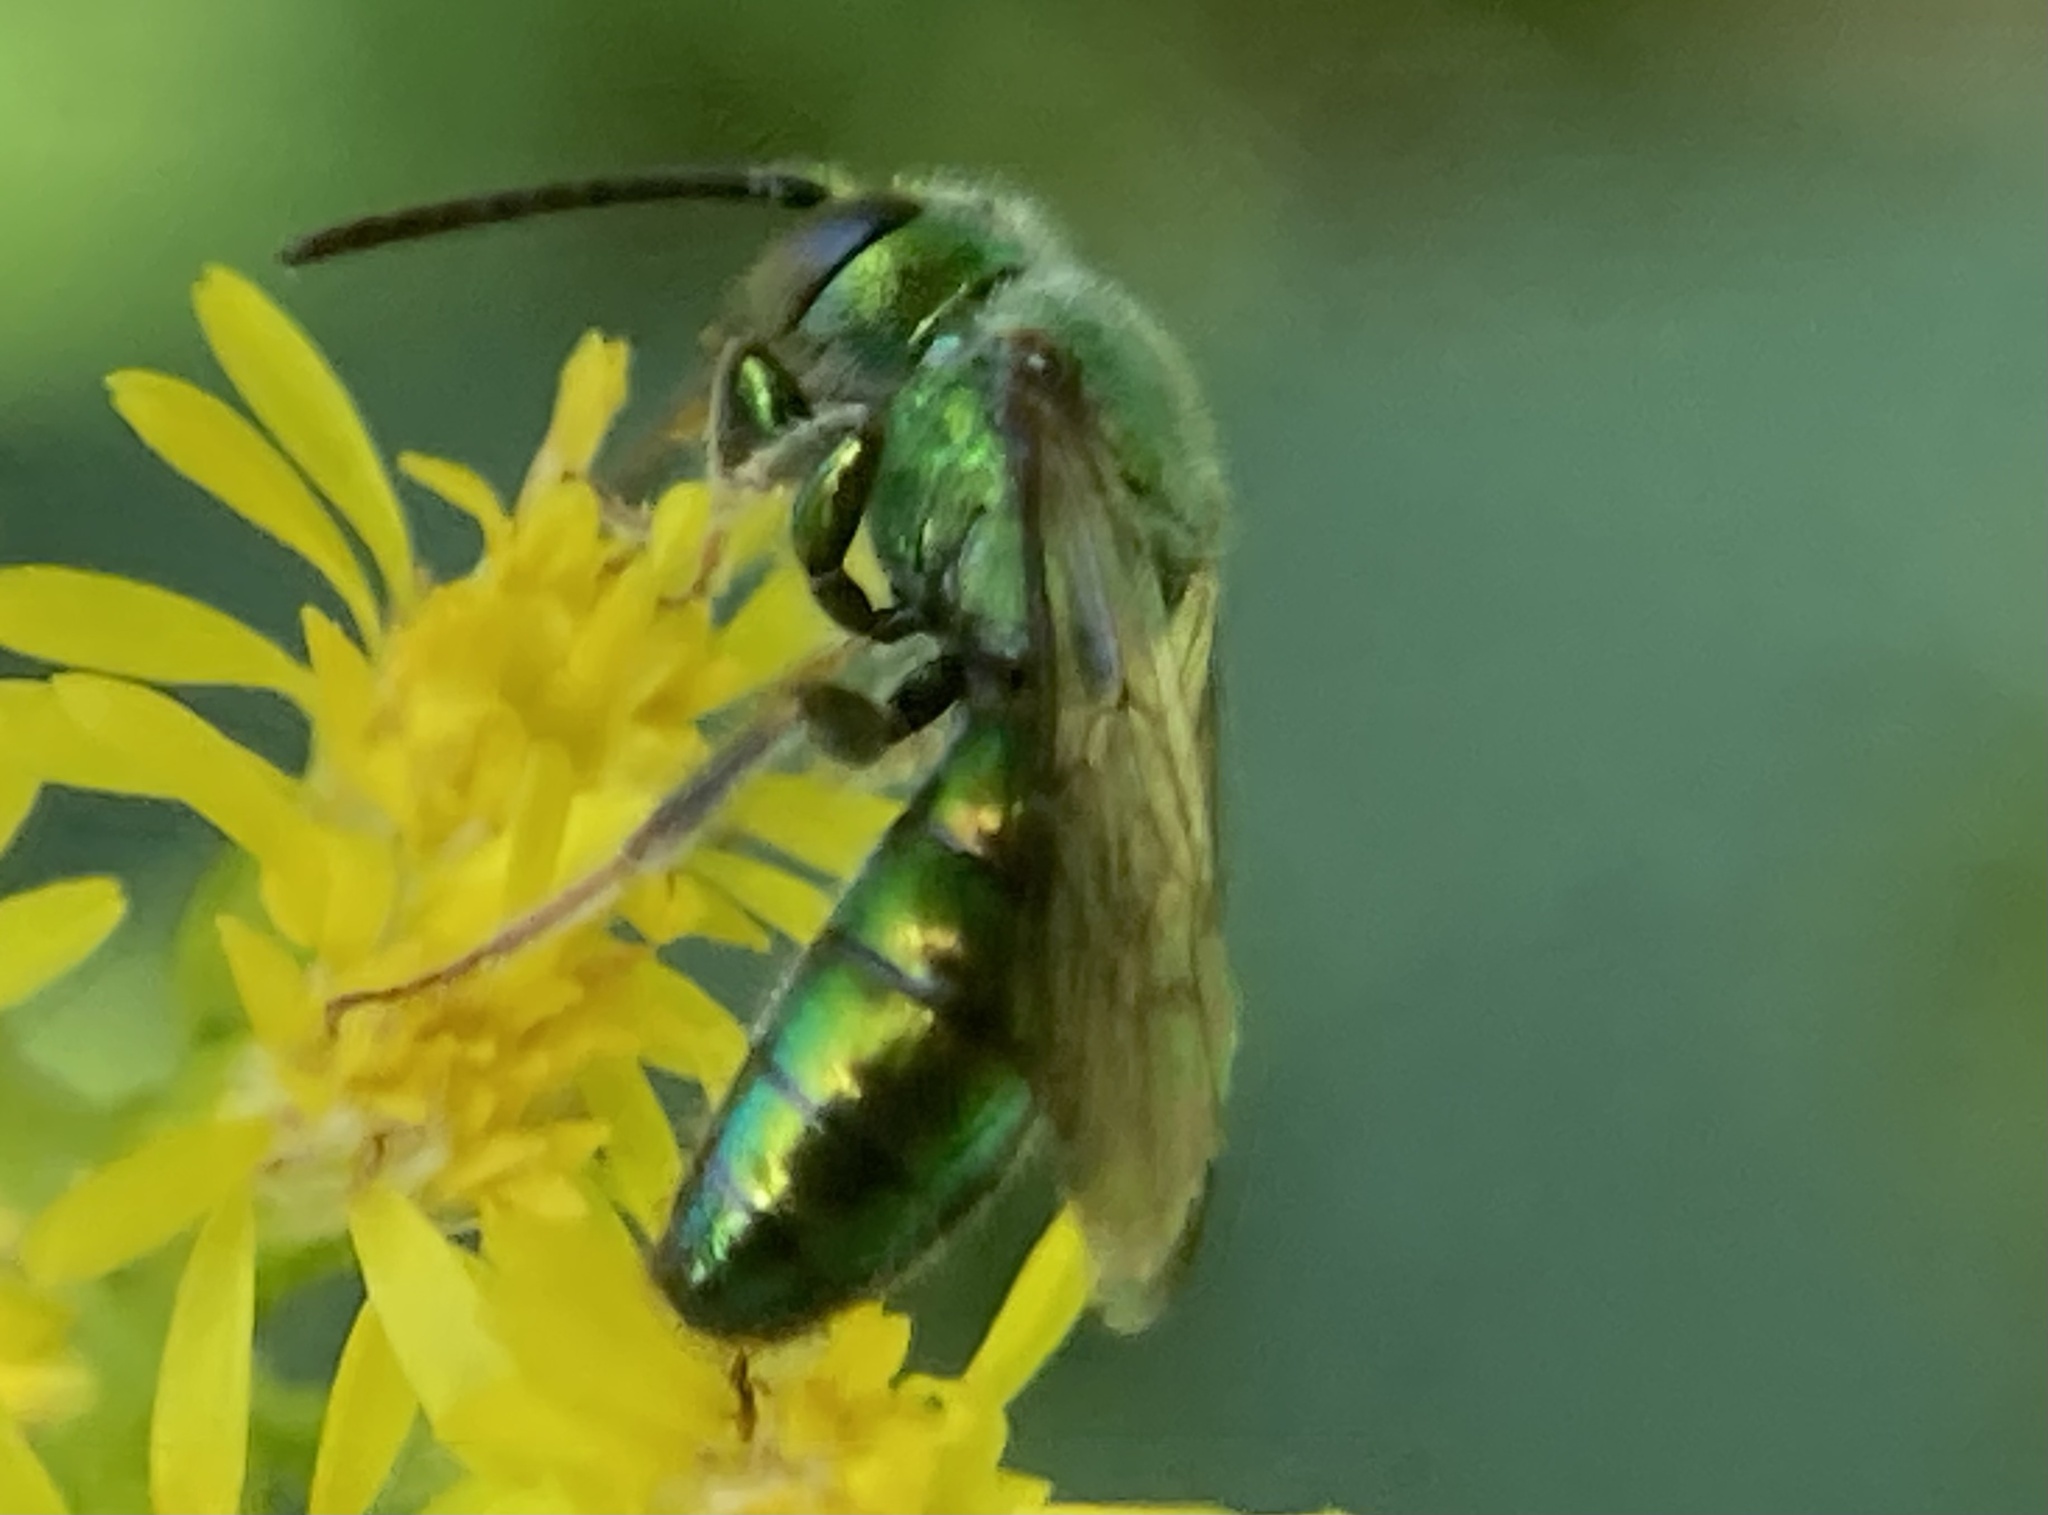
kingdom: Animalia
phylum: Arthropoda
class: Insecta
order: Hymenoptera
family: Halictidae
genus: Augochlora
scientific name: Augochlora pura
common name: Pure green sweat bee
